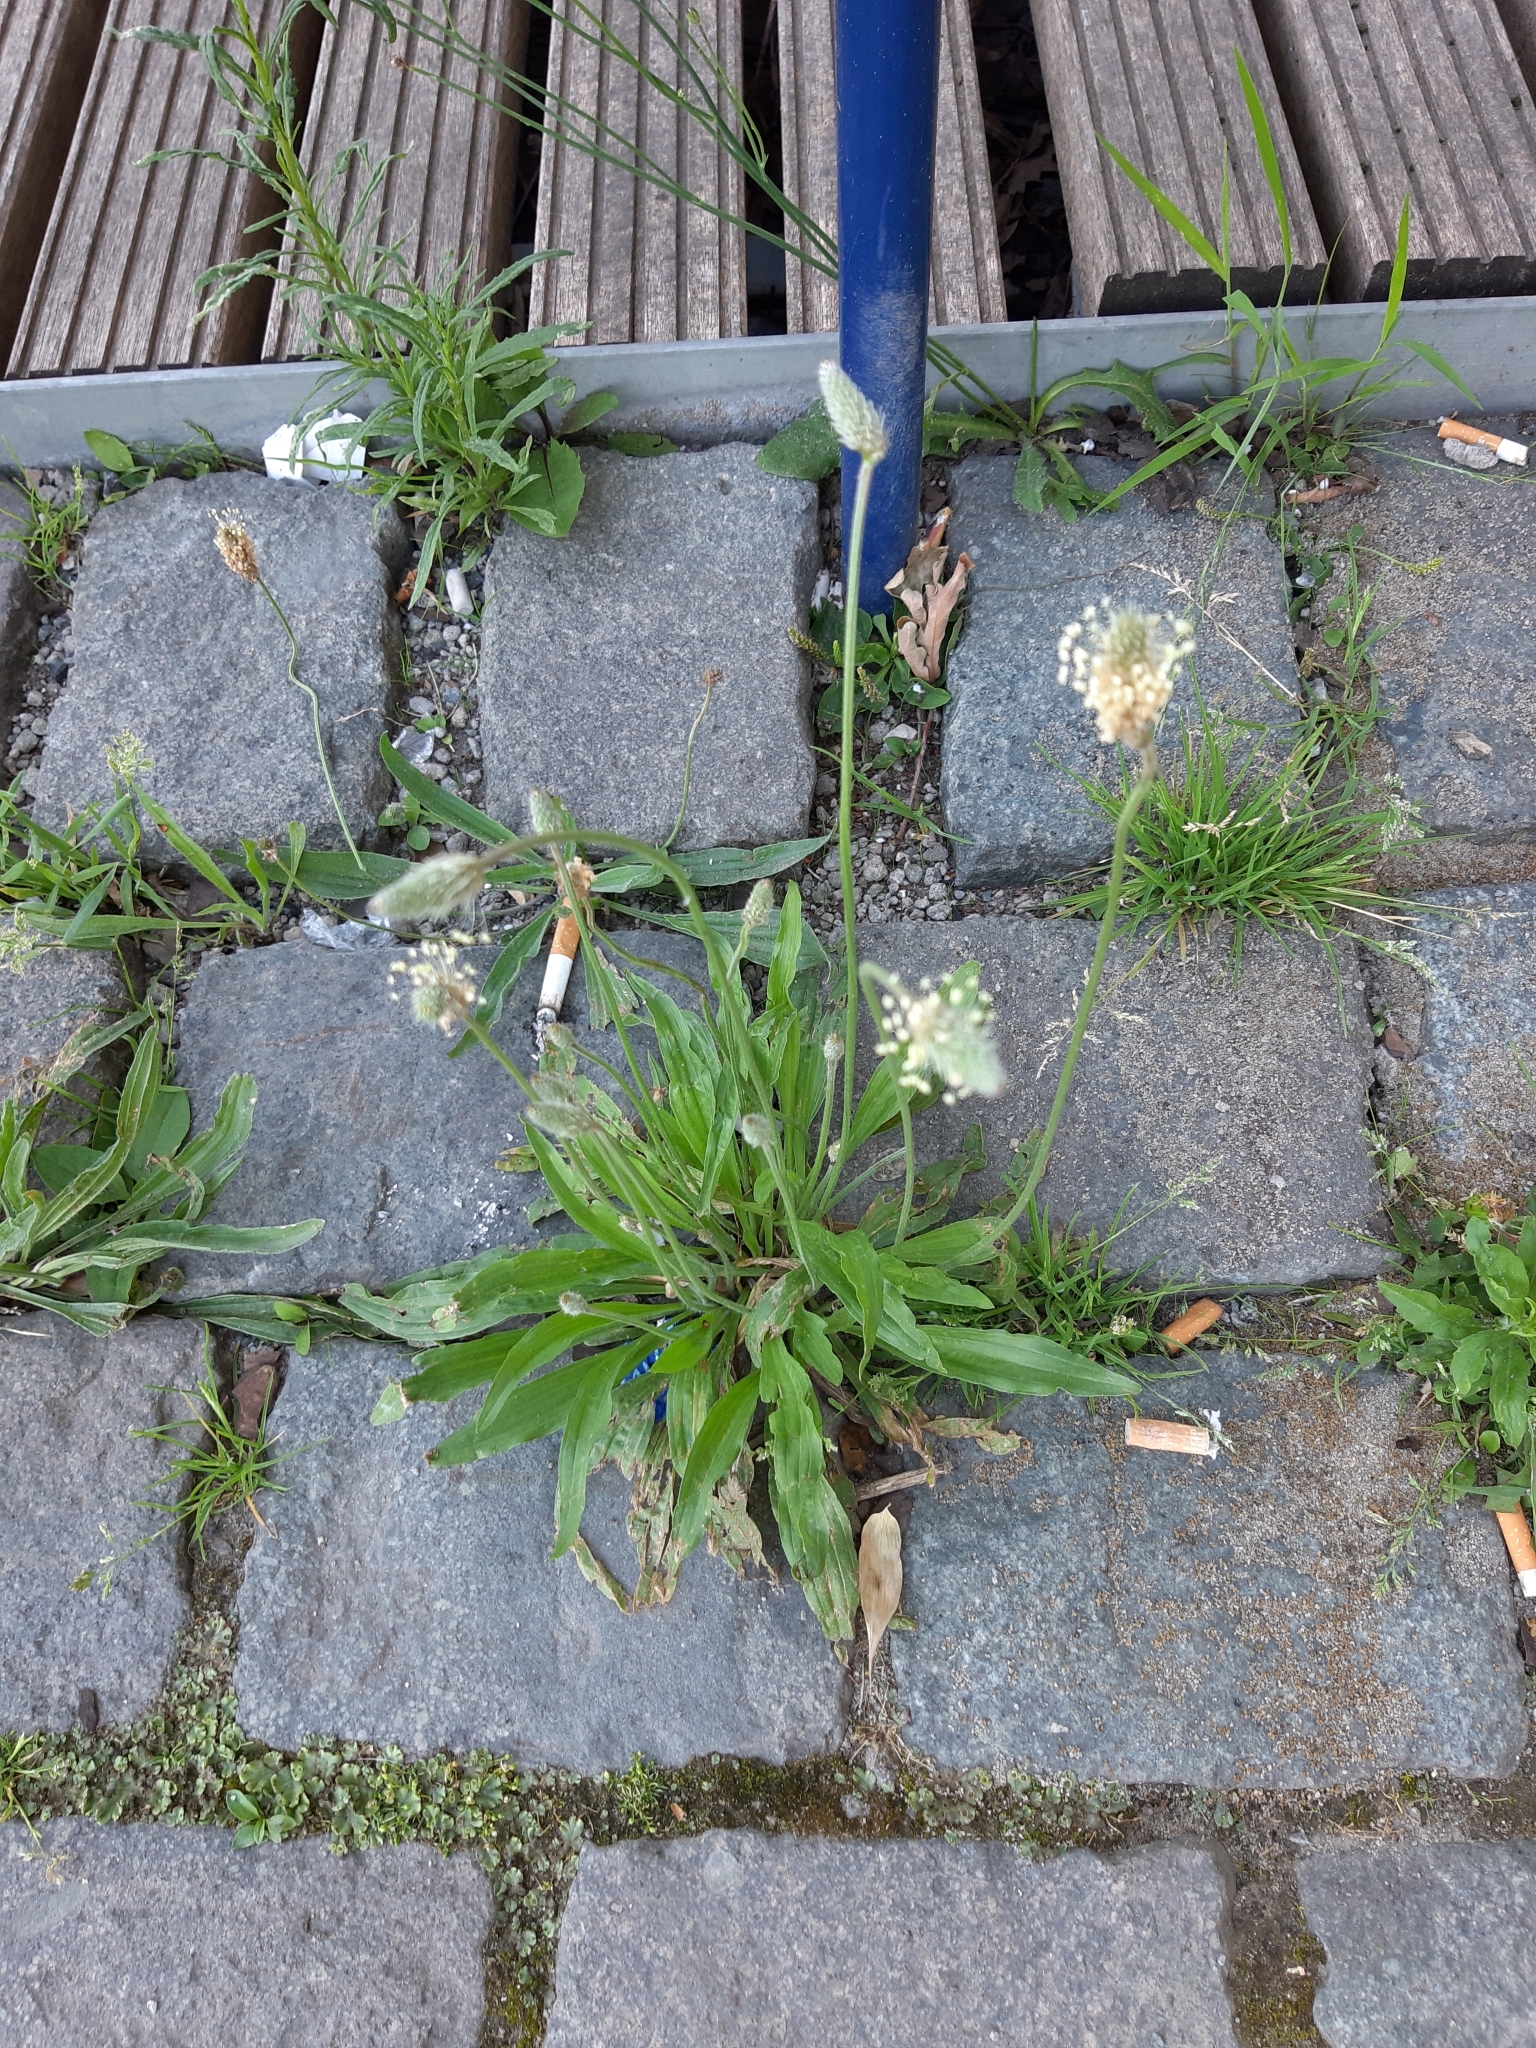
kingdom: Plantae
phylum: Tracheophyta
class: Magnoliopsida
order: Lamiales
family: Plantaginaceae
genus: Plantago
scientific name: Plantago lanceolata
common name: Ribwort plantain
